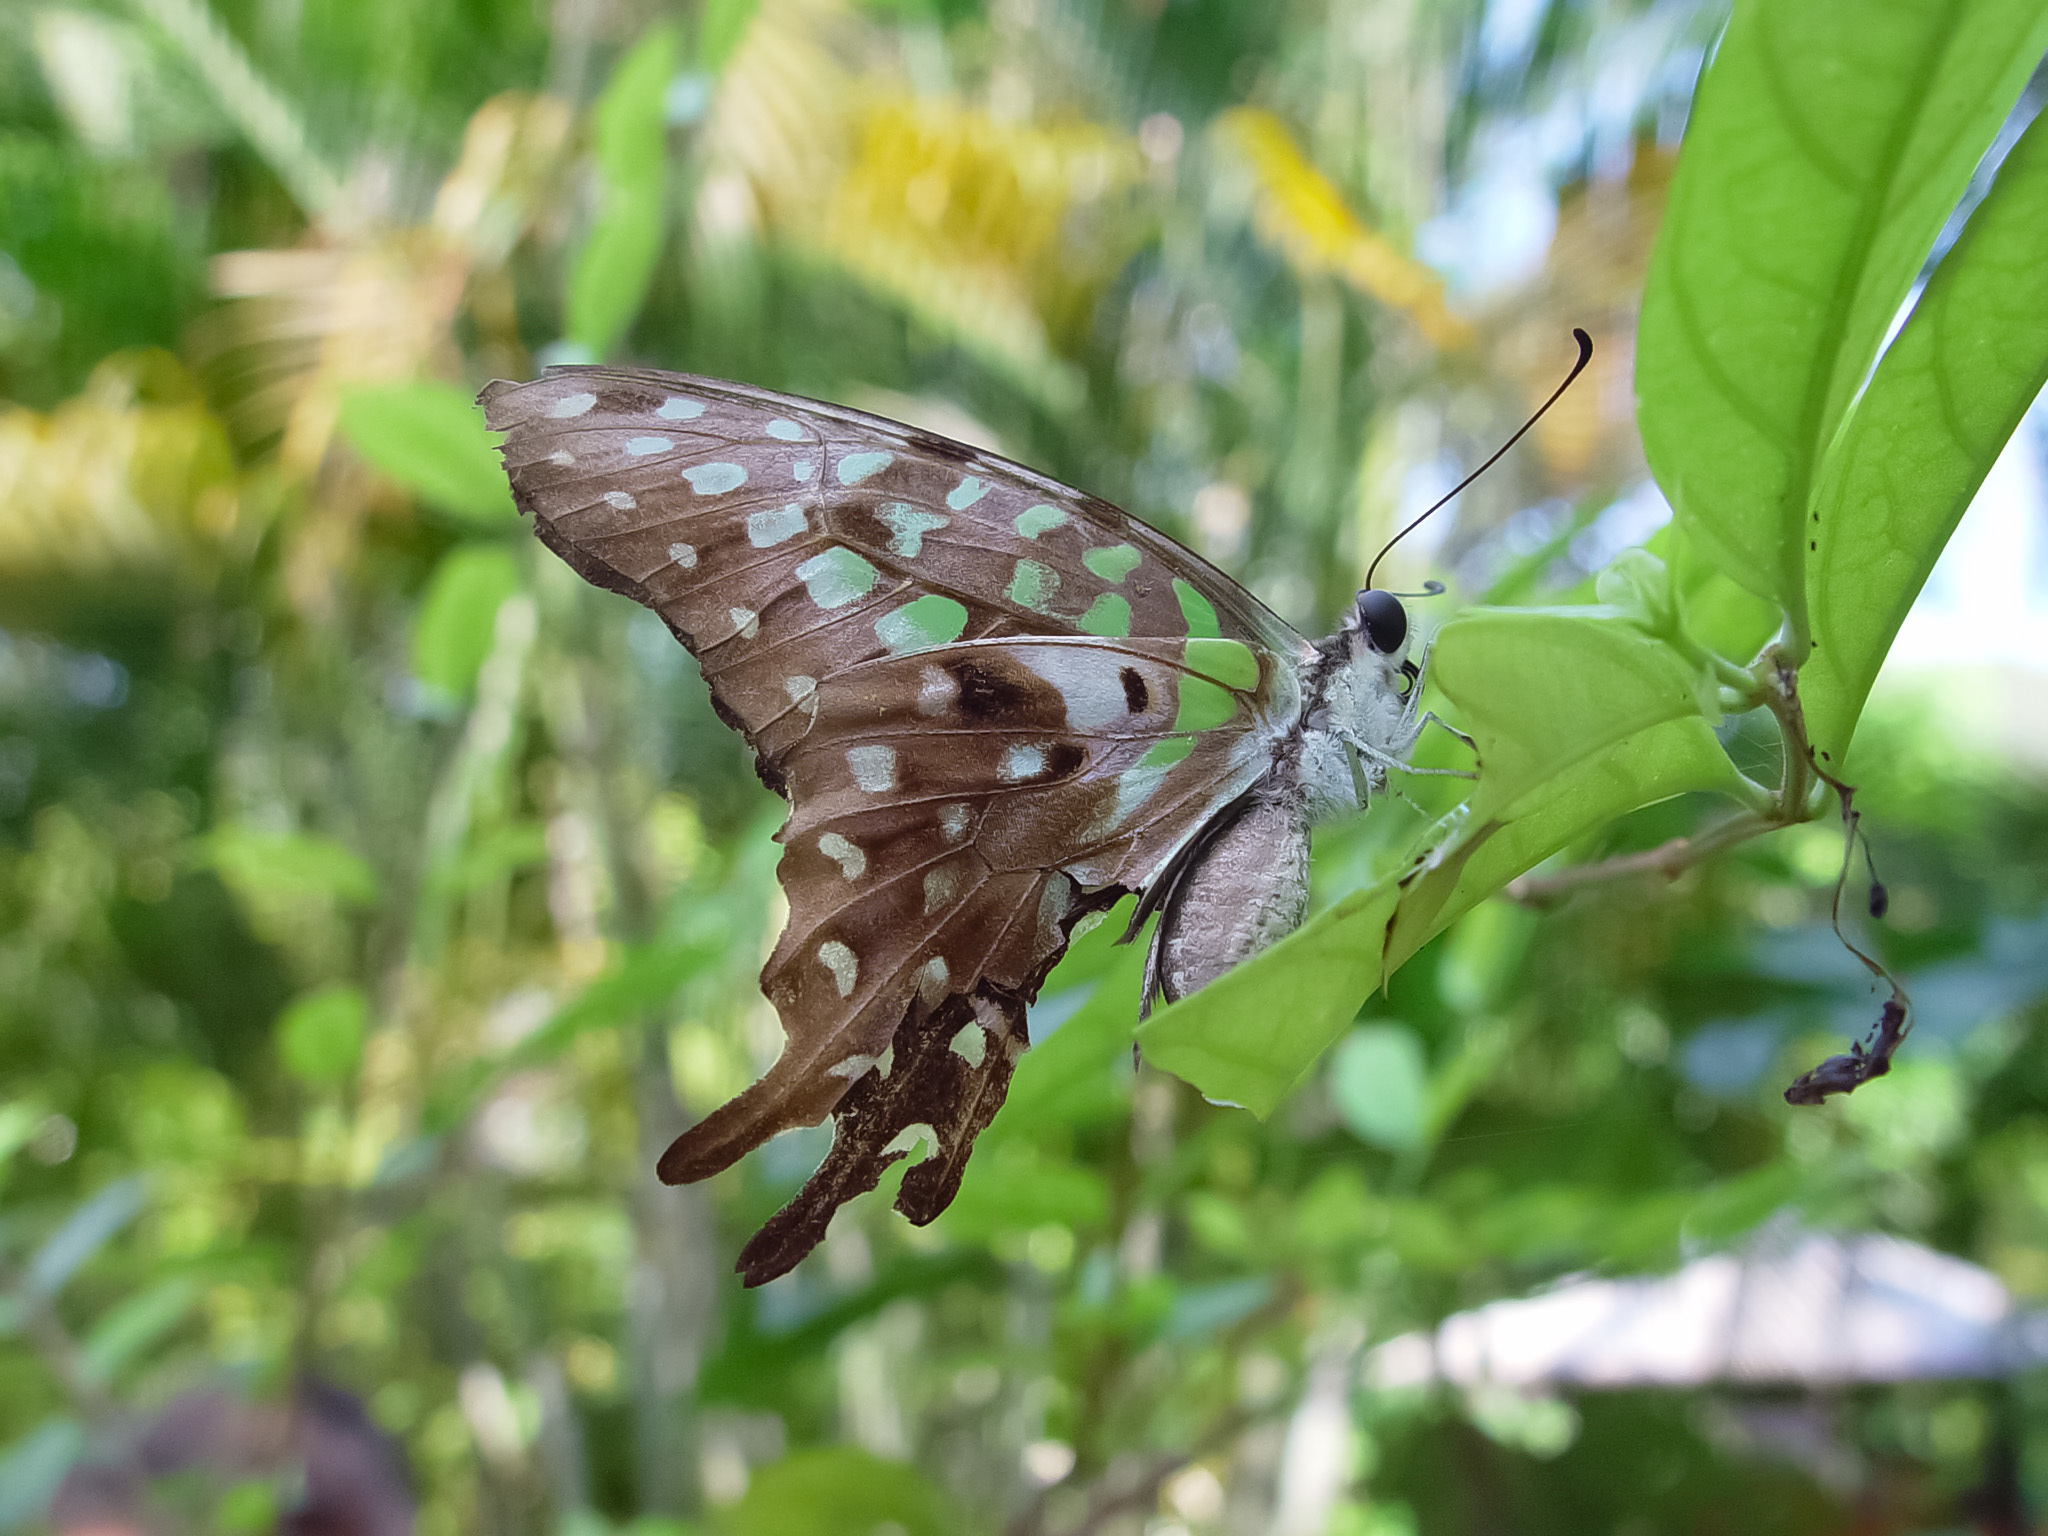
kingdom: Animalia
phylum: Arthropoda
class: Insecta
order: Lepidoptera
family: Papilionidae
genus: Graphium
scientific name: Graphium agamemnon
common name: Tailed jay
